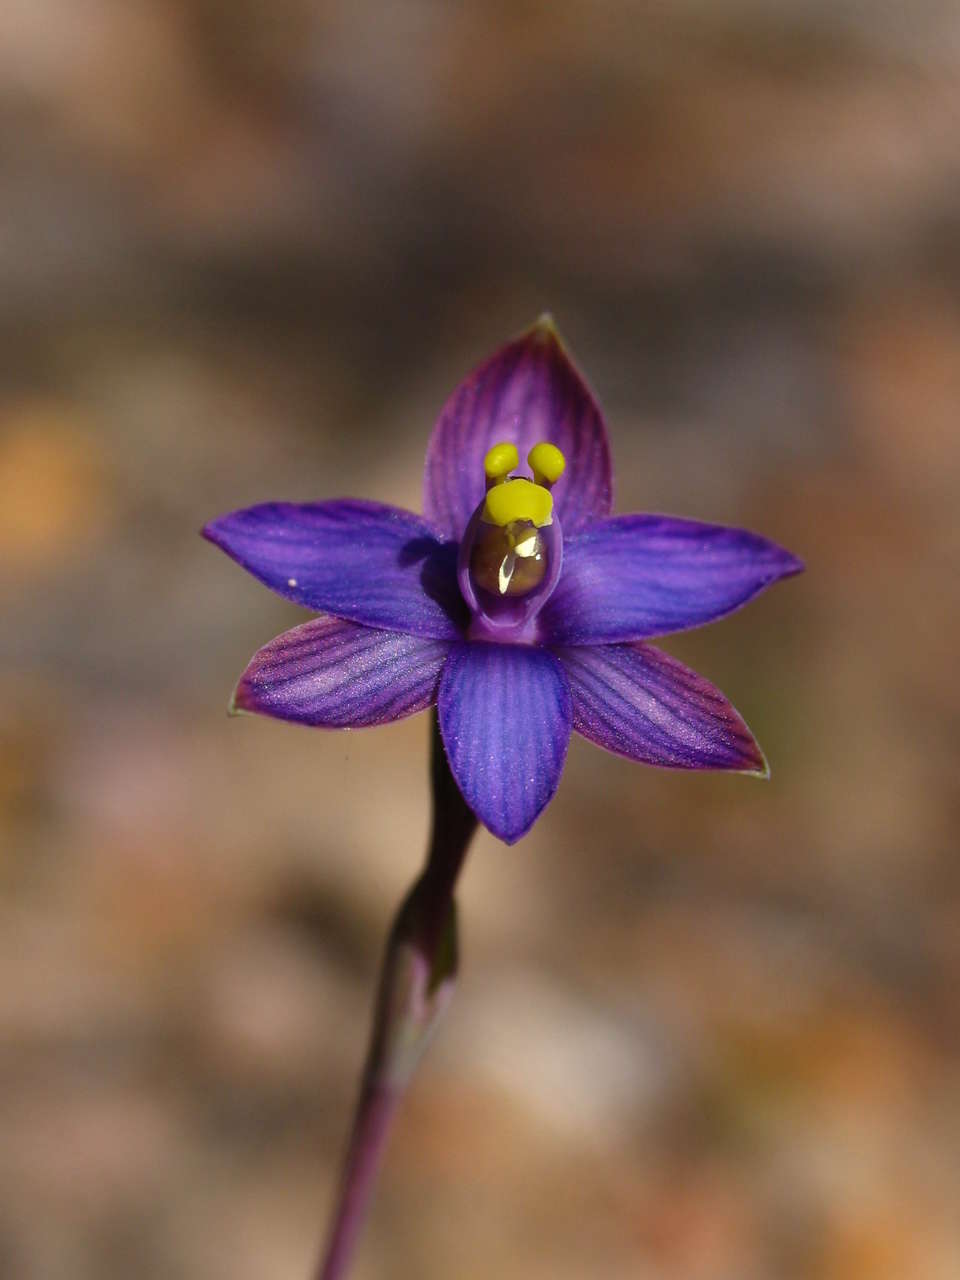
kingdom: Plantae
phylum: Tracheophyta
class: Liliopsida
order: Asparagales
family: Orchidaceae
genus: Thelymitra
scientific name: Thelymitra matthewsii
